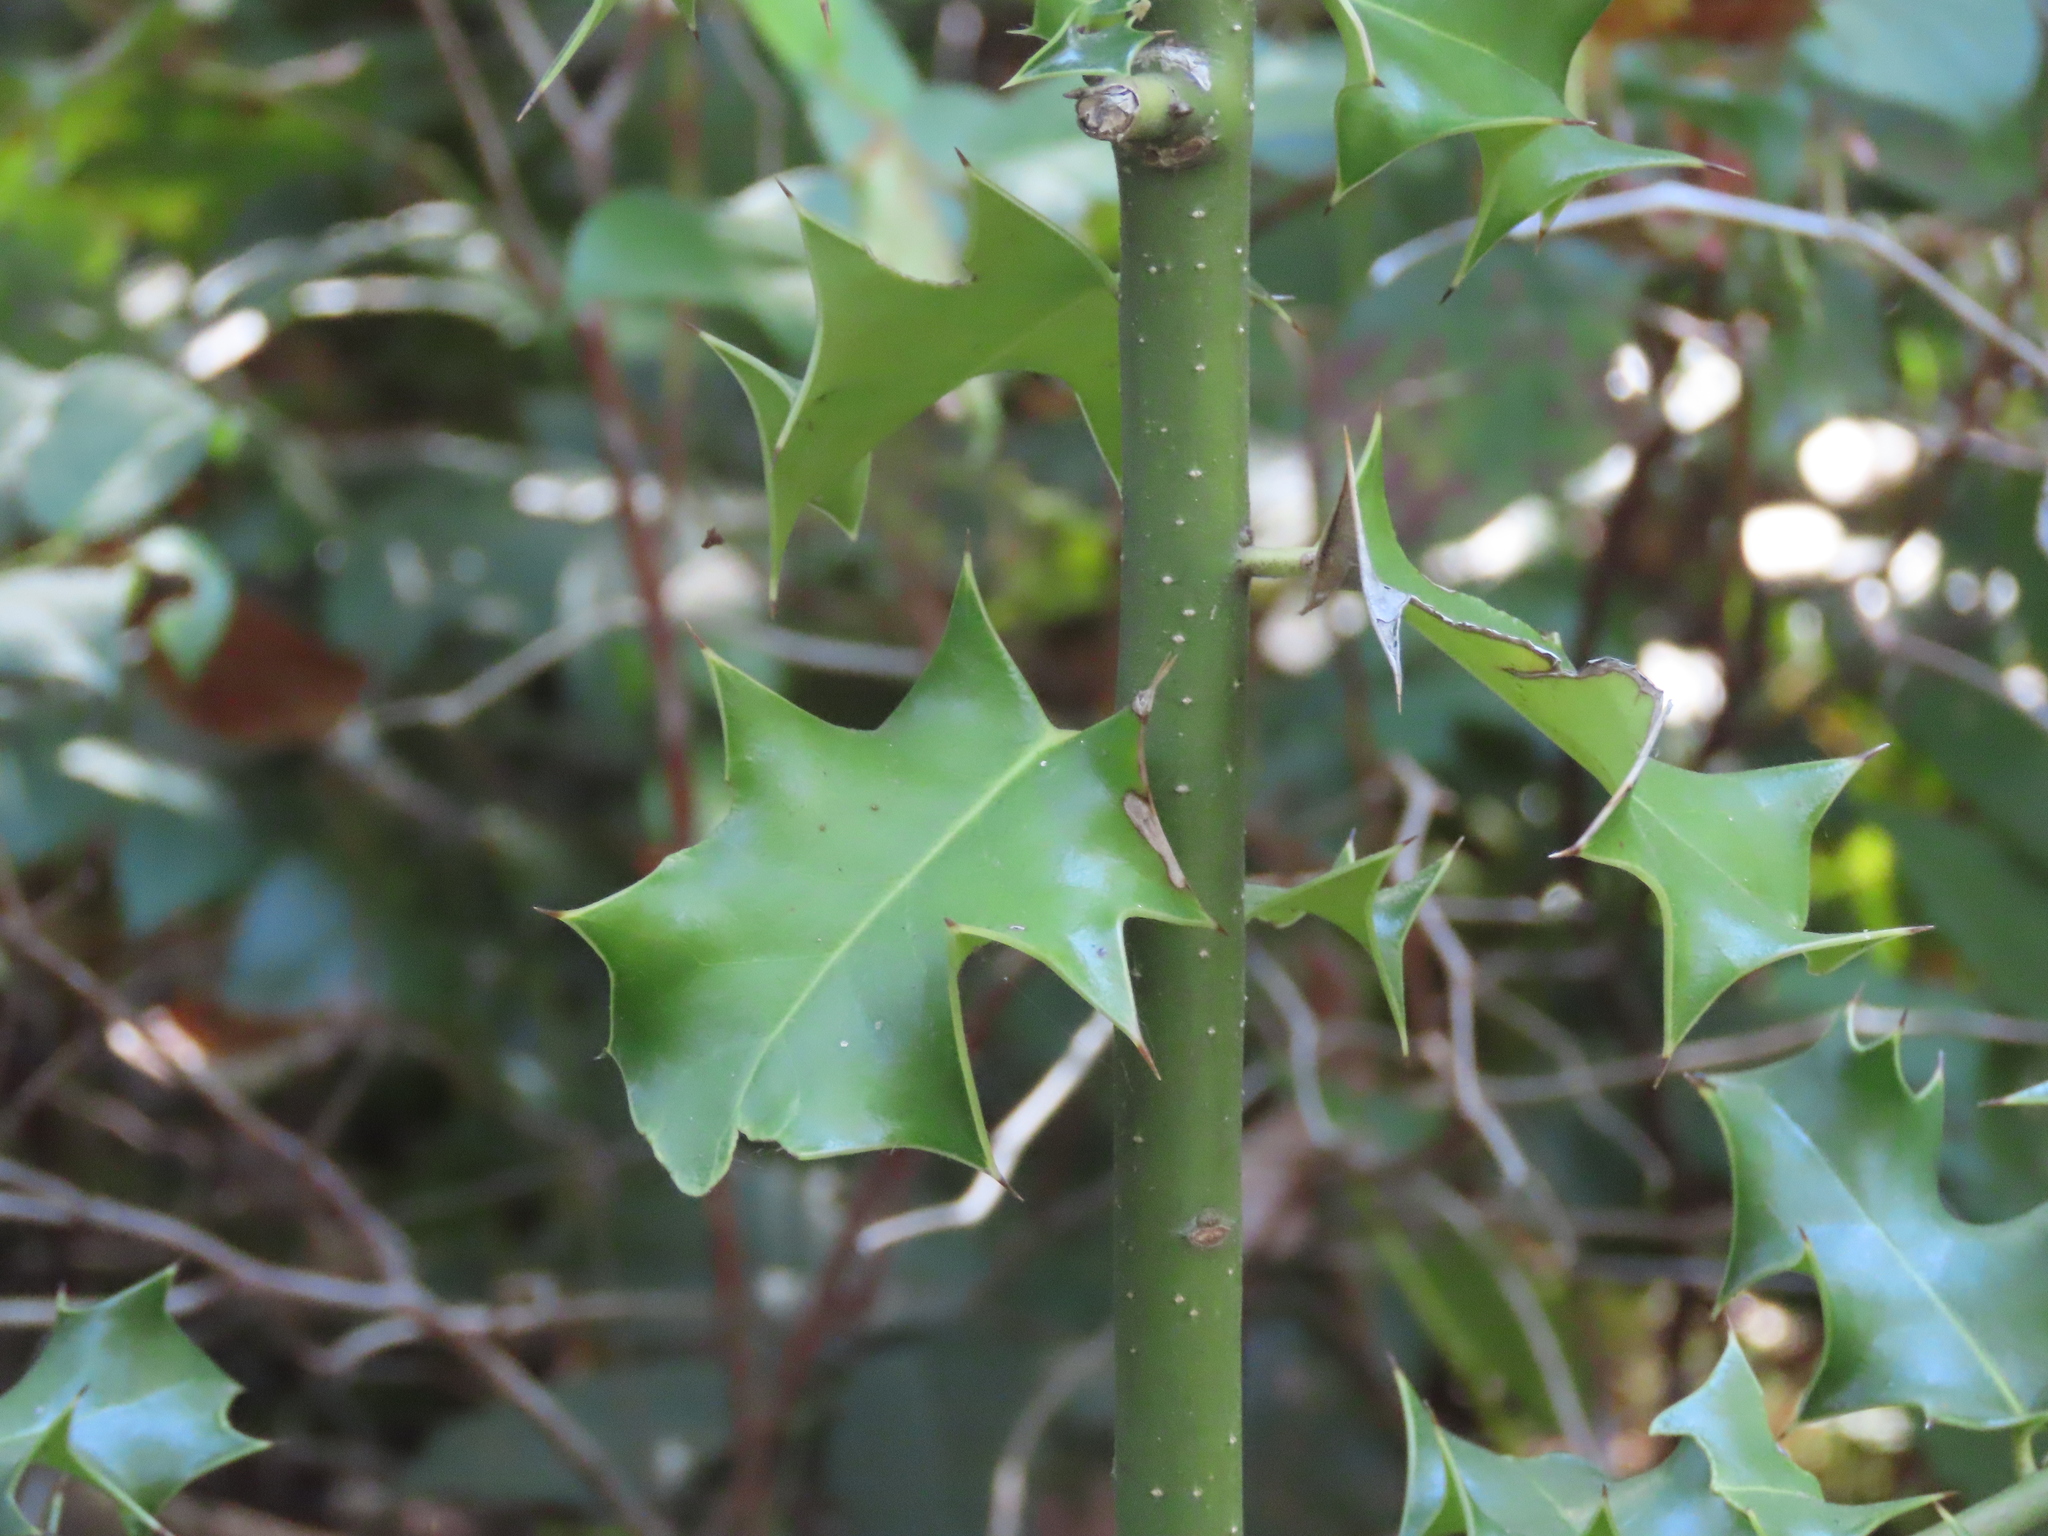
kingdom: Plantae
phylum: Tracheophyta
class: Magnoliopsida
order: Aquifoliales
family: Aquifoliaceae
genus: Ilex
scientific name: Ilex aquifolium
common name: English holly
